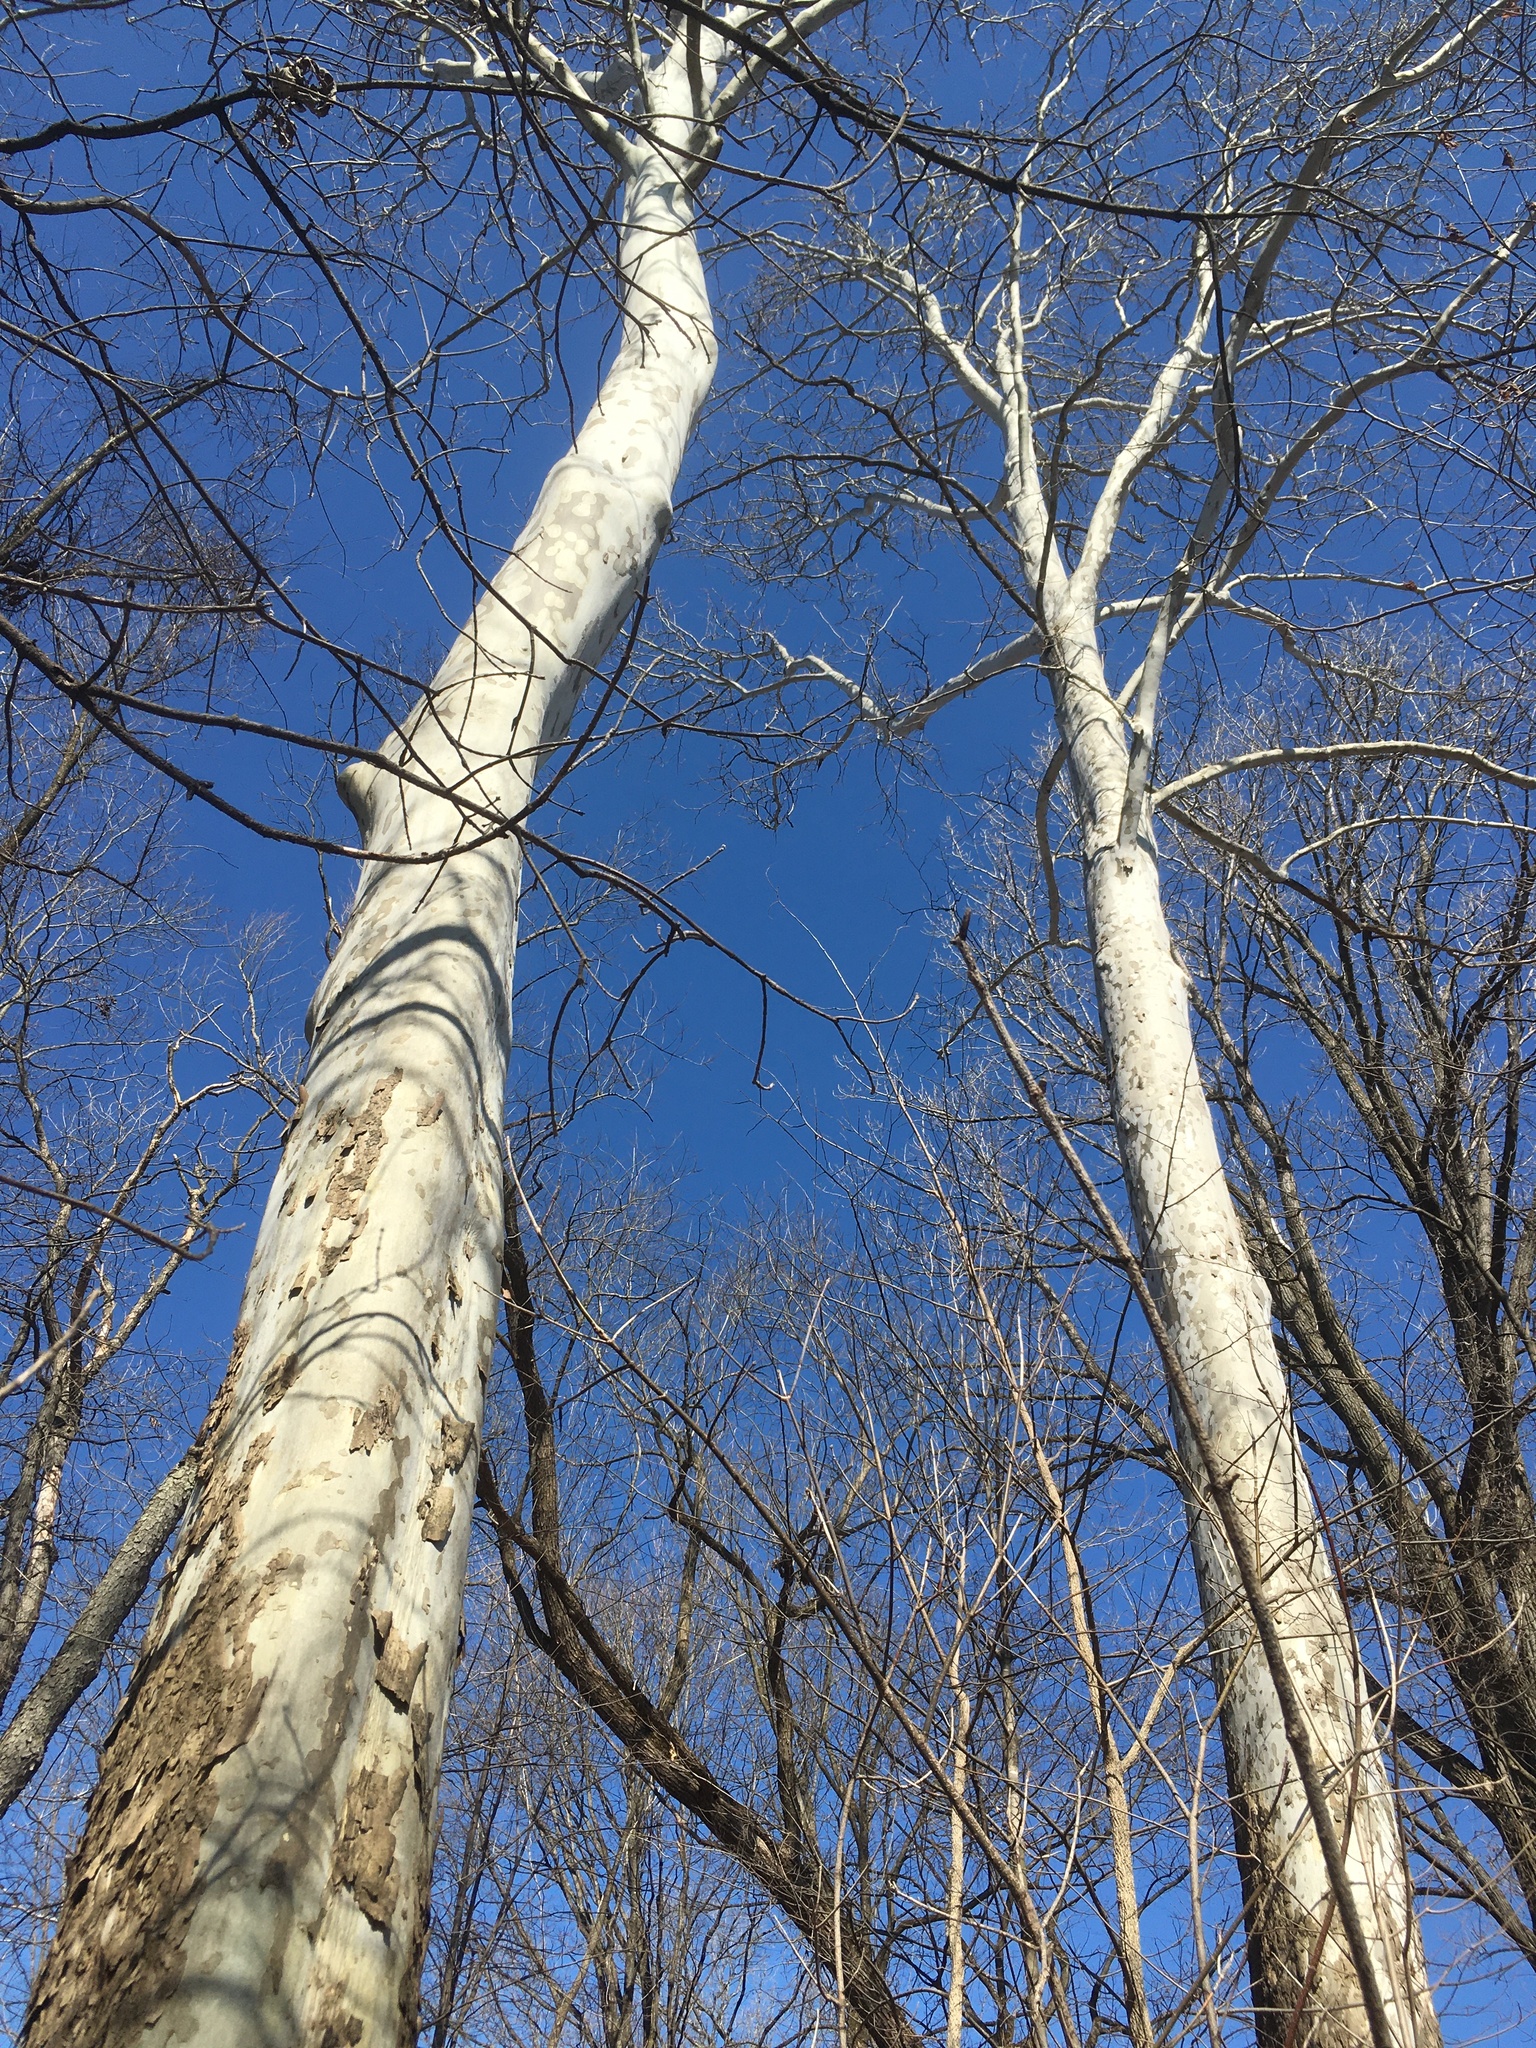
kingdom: Plantae
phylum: Tracheophyta
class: Magnoliopsida
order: Proteales
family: Platanaceae
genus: Platanus
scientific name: Platanus occidentalis
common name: American sycamore
